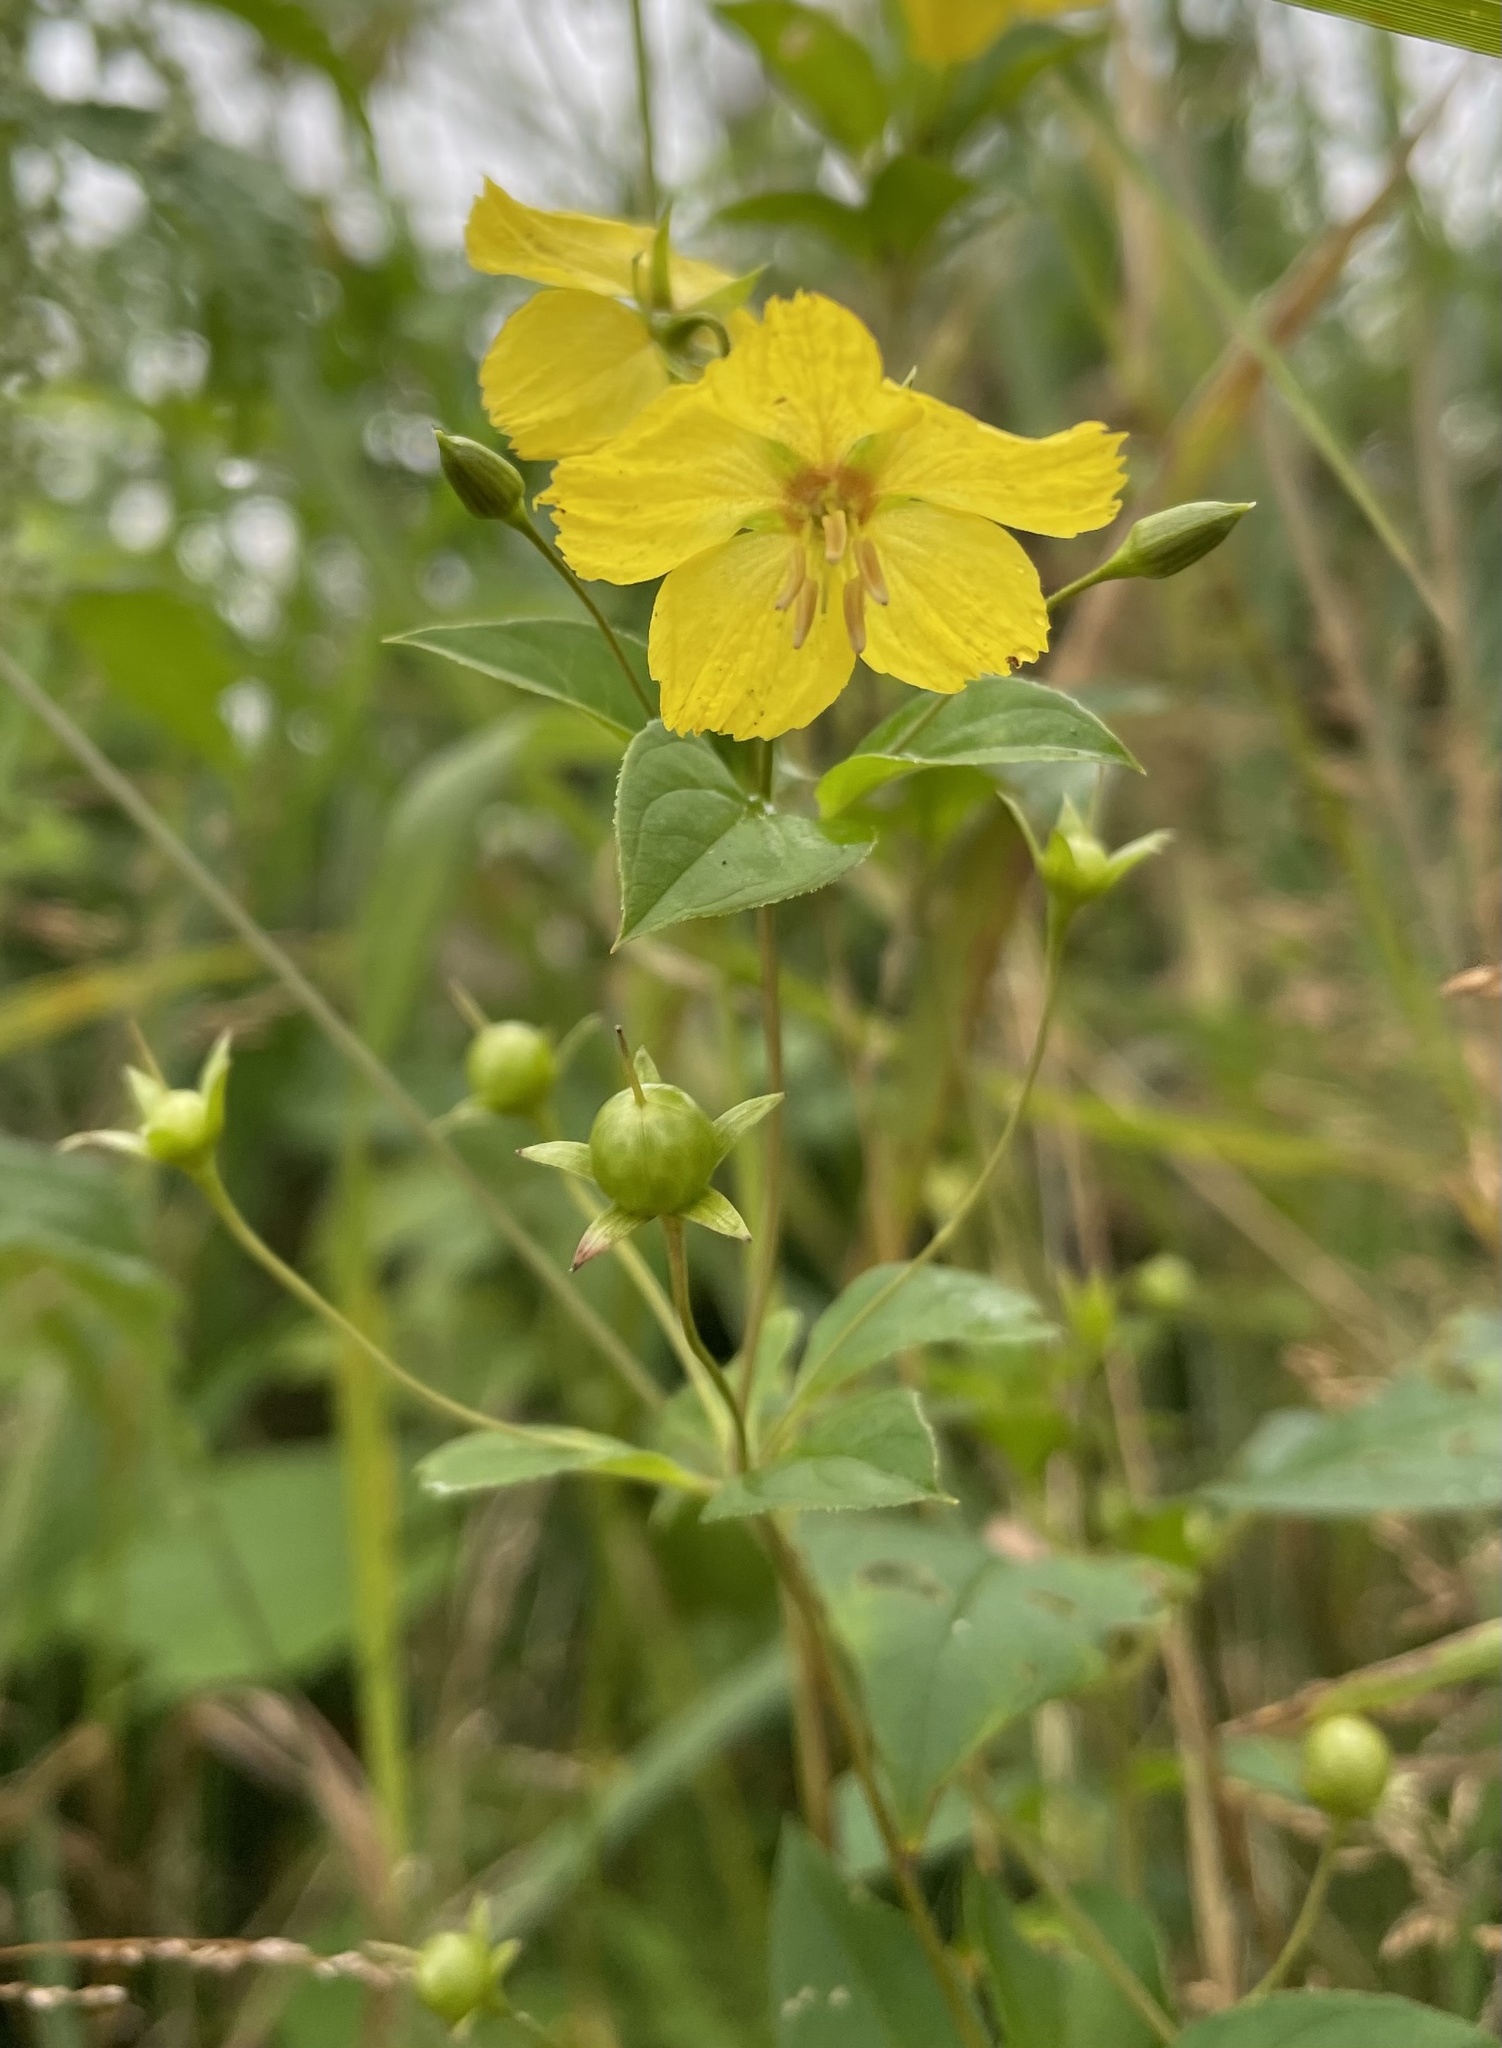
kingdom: Plantae
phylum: Tracheophyta
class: Magnoliopsida
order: Ericales
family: Primulaceae
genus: Lysimachia
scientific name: Lysimachia ciliata
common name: Fringed loosestrife
